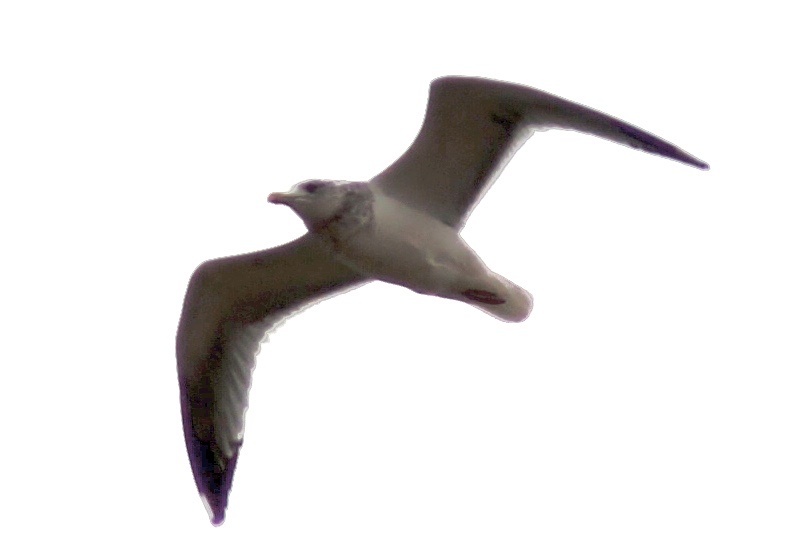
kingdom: Animalia
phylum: Chordata
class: Aves
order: Charadriiformes
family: Laridae
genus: Larus
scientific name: Larus argentatus
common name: Herring gull
